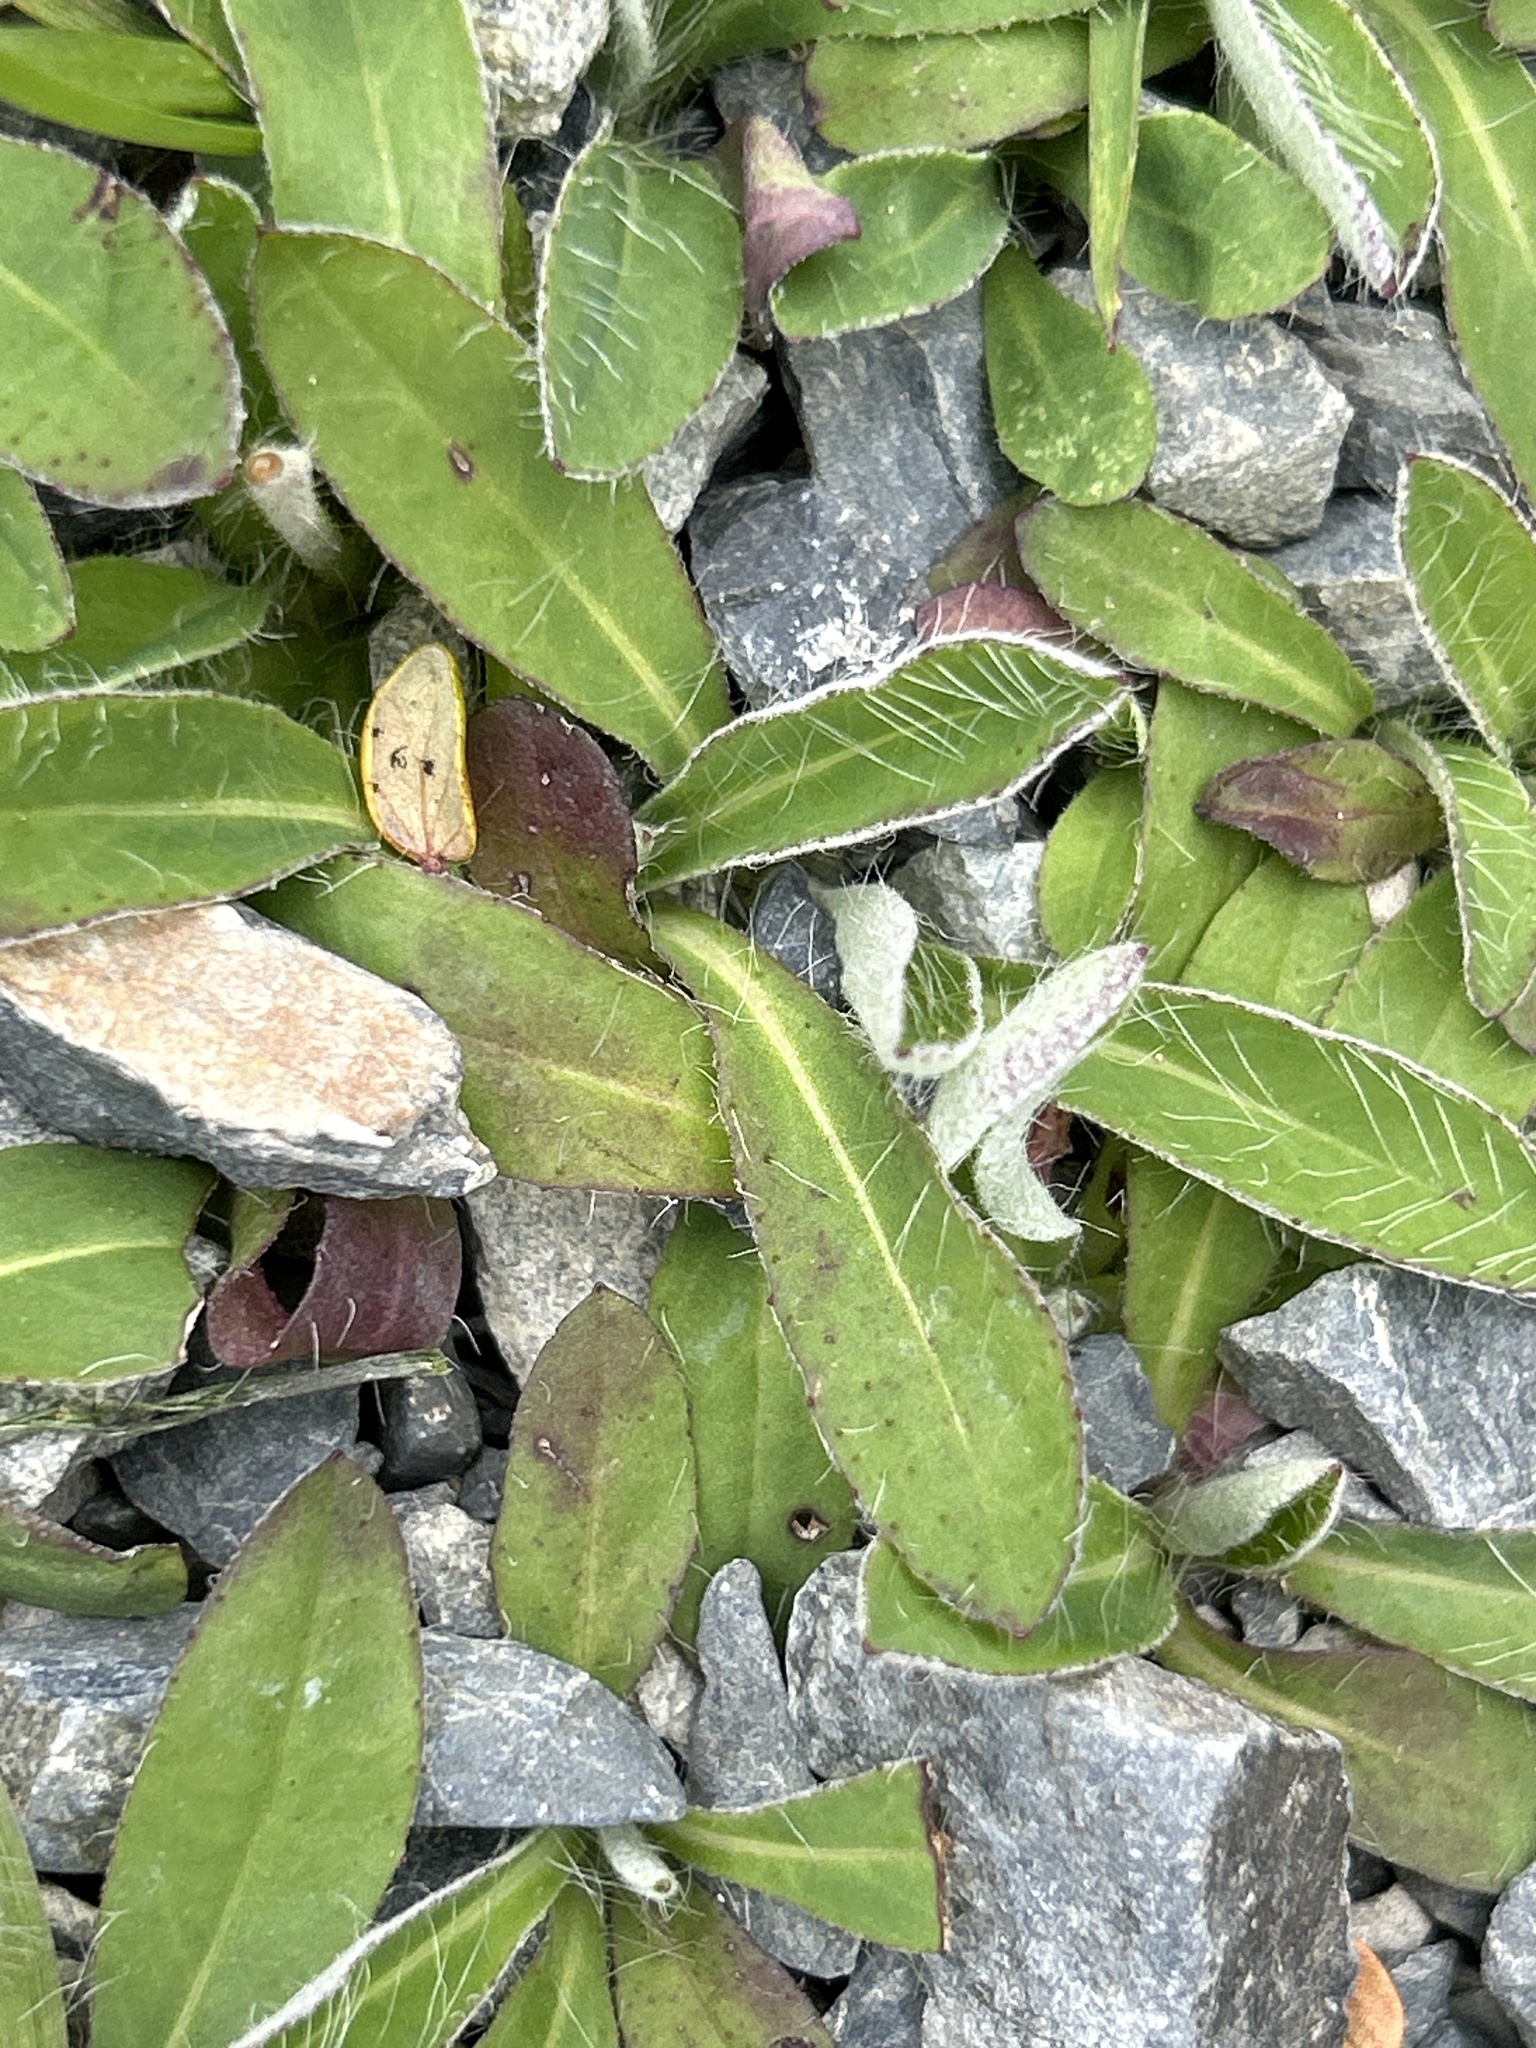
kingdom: Plantae
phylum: Tracheophyta
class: Magnoliopsida
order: Asterales
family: Asteraceae
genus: Pilosella
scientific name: Pilosella officinarum
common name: Mouse-ear hawkweed
